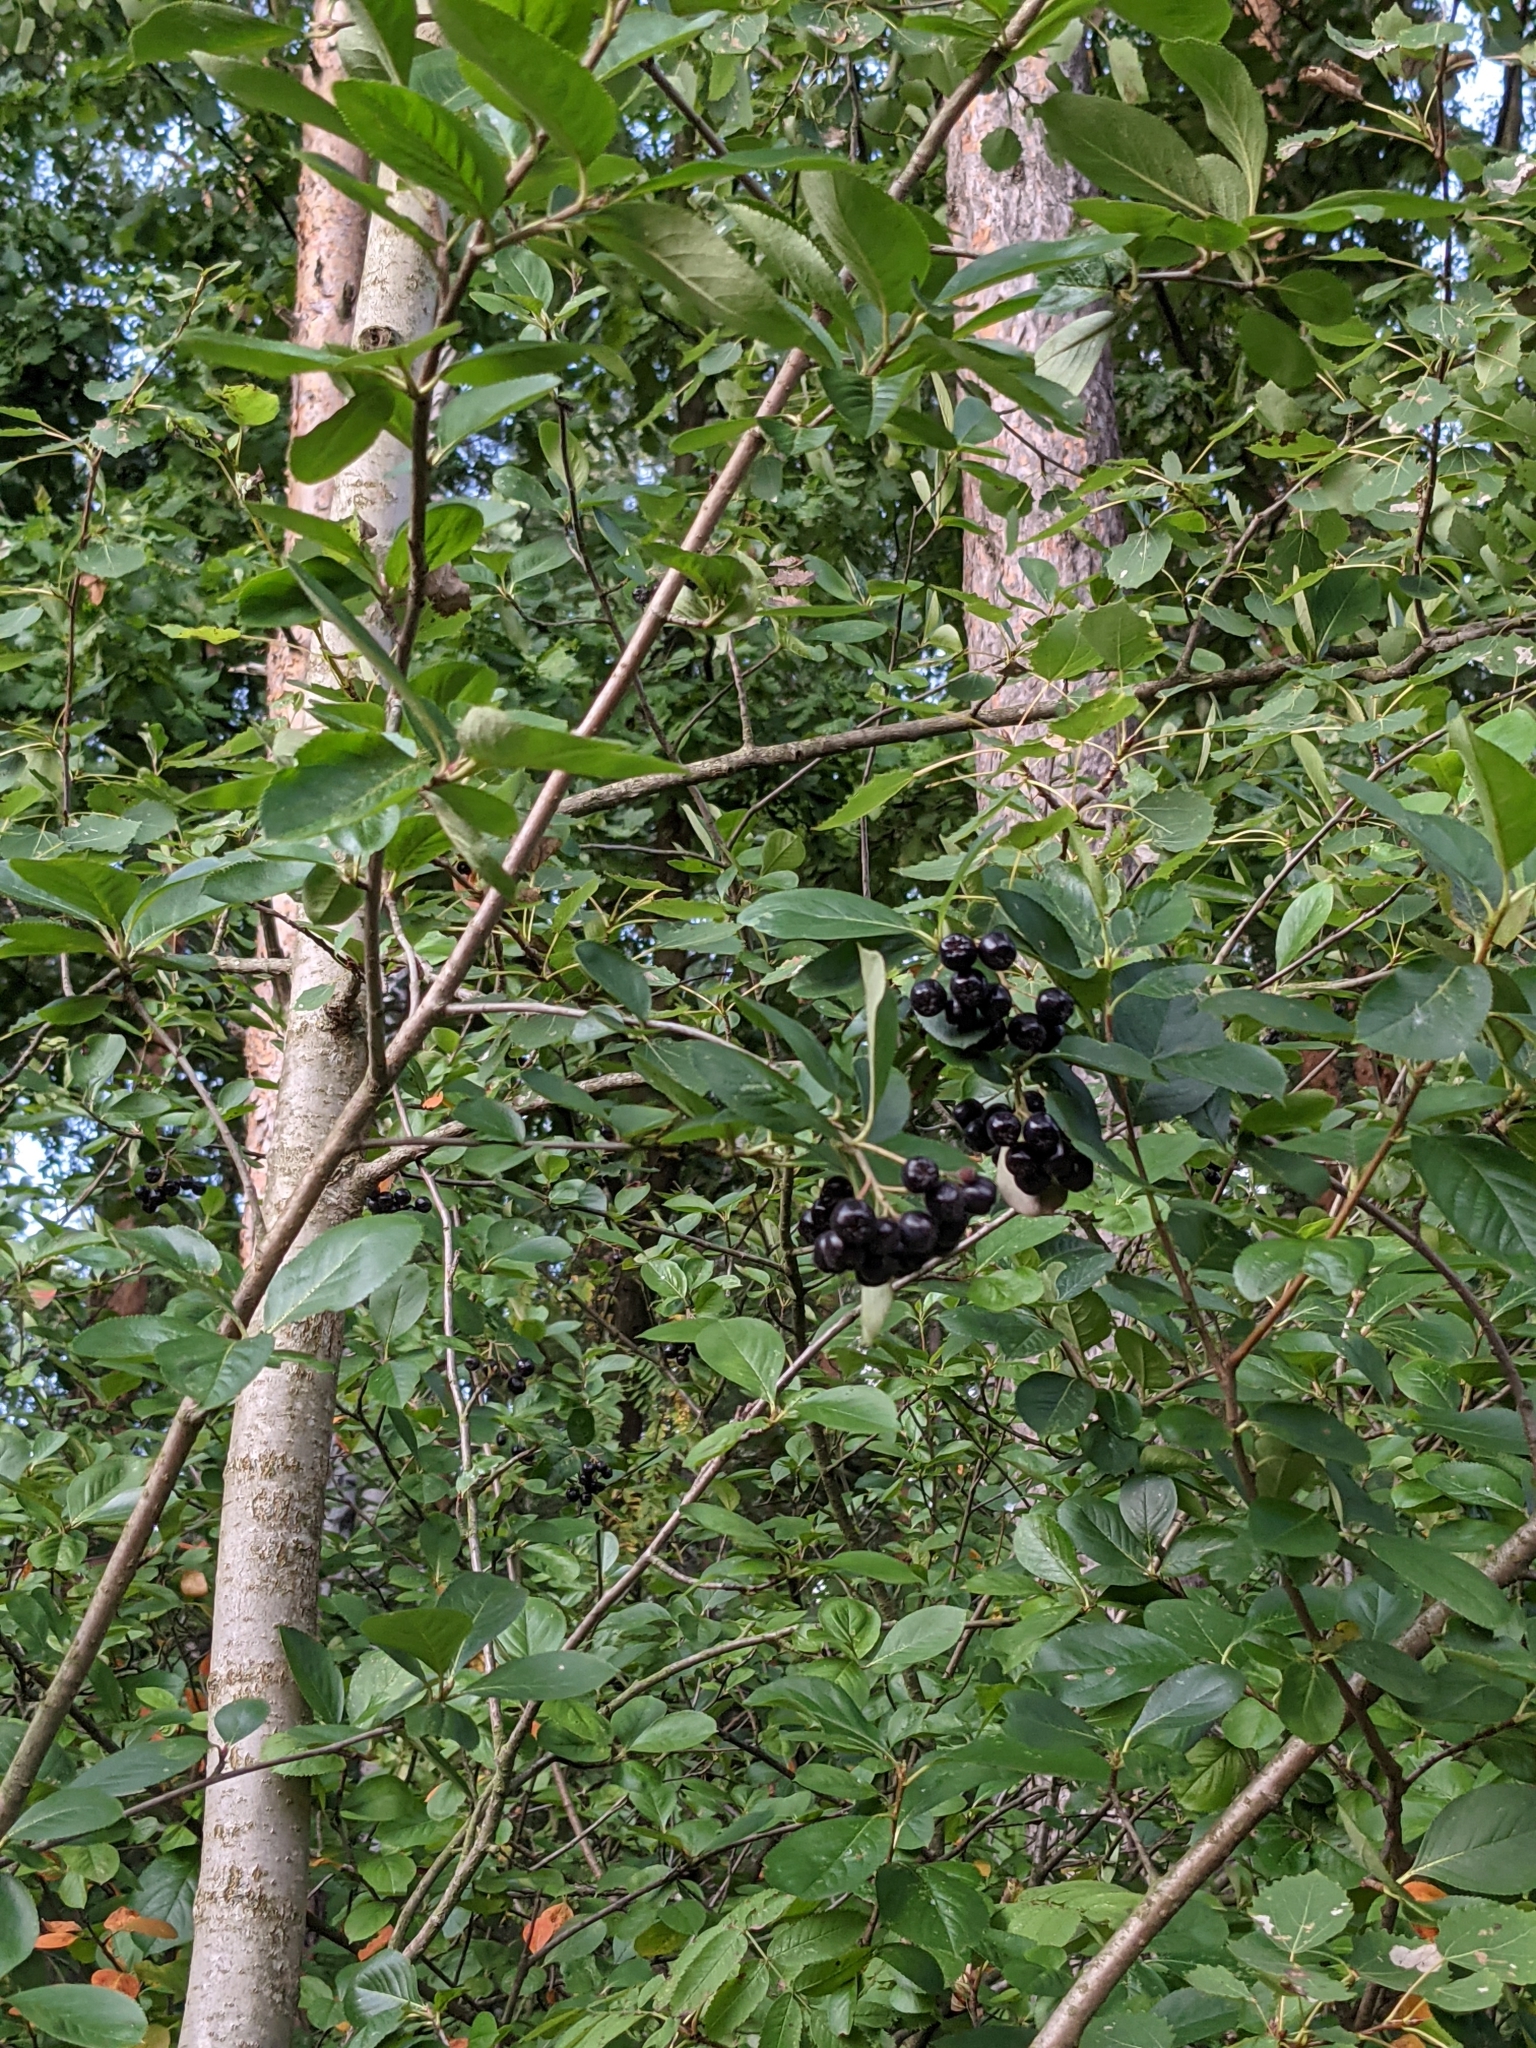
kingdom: Plantae
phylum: Tracheophyta
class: Magnoliopsida
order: Rosales
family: Rosaceae
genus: Sorbaronia
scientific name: Sorbaronia arsenii
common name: Arsène's mountain-ash
